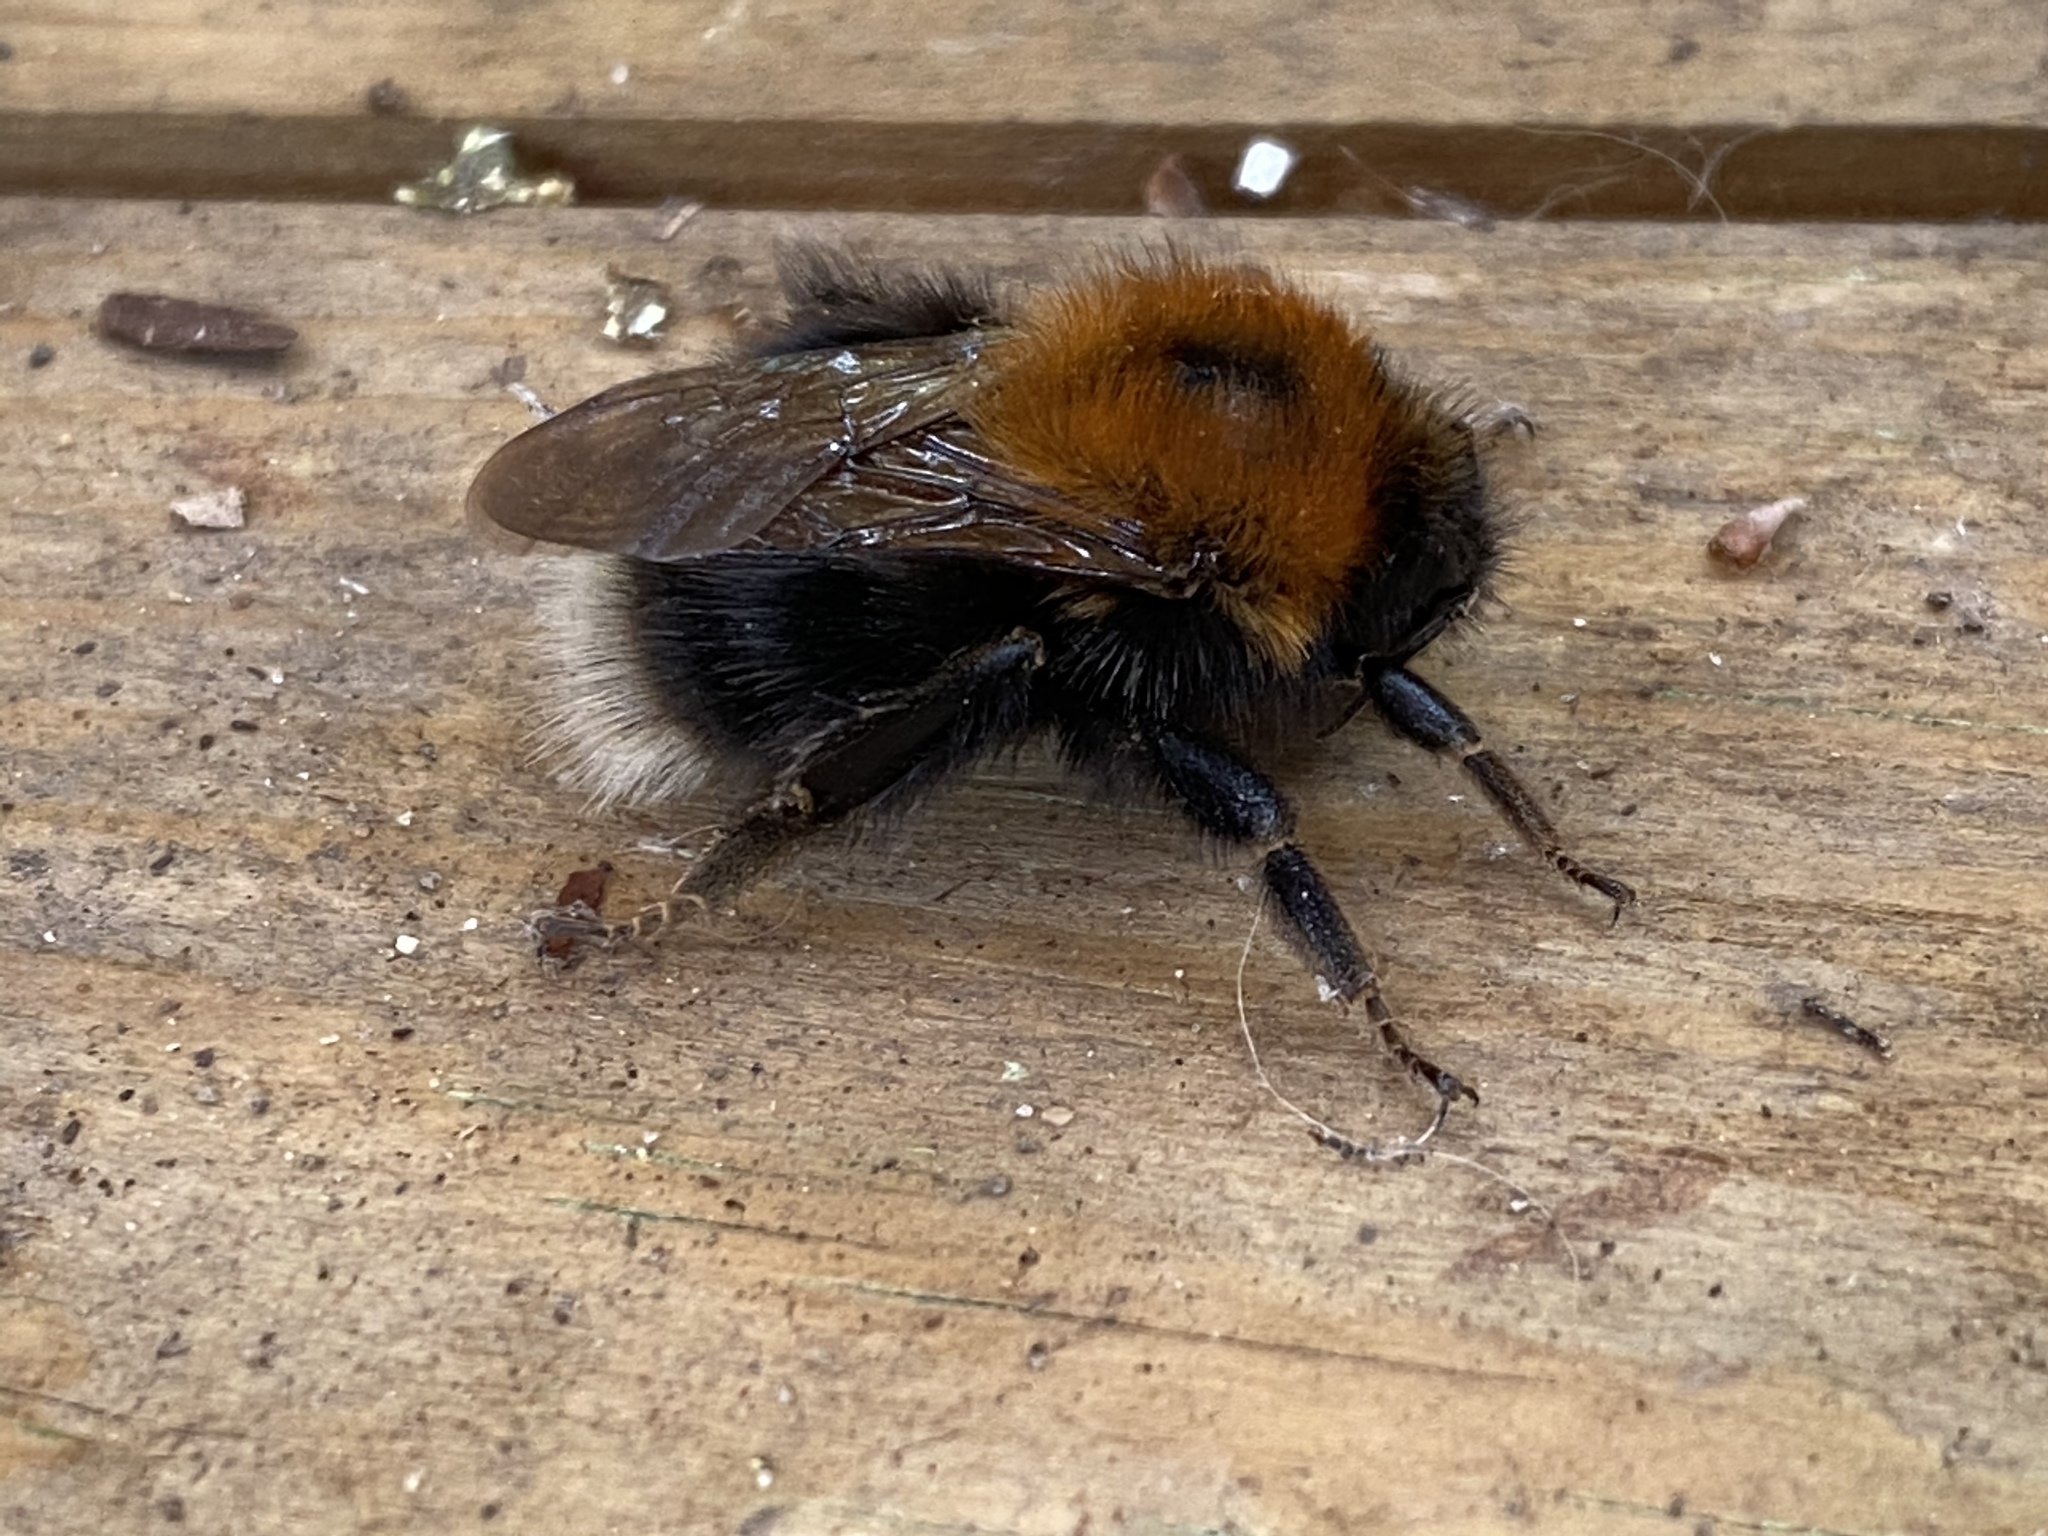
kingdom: Animalia
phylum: Arthropoda
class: Insecta
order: Hymenoptera
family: Apidae
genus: Bombus
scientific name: Bombus hypnorum
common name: New garden bumblebee
